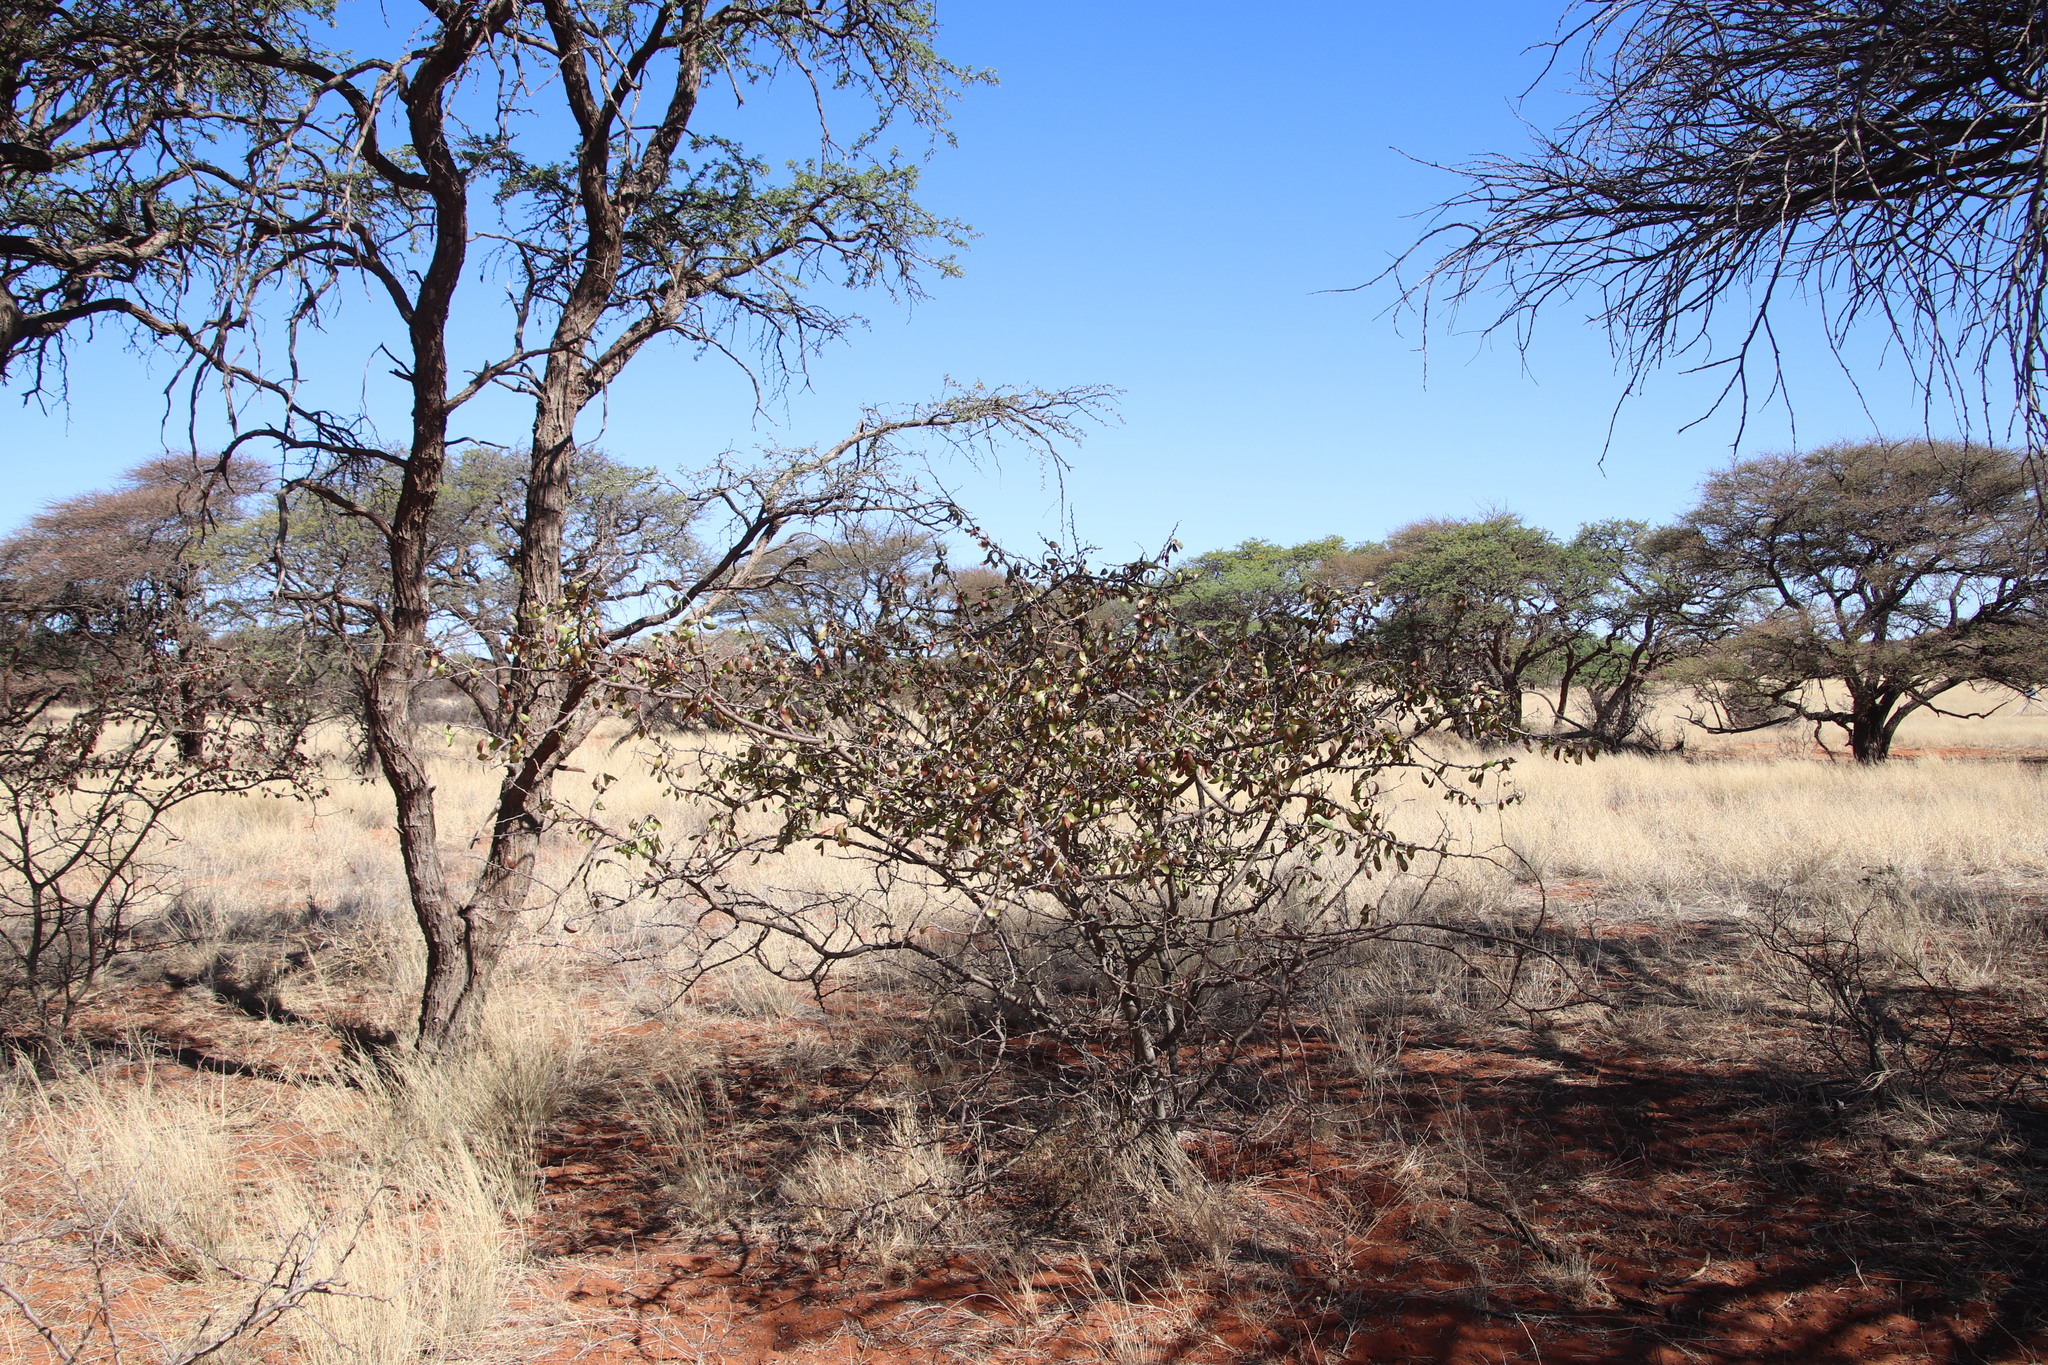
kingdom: Plantae
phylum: Tracheophyta
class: Magnoliopsida
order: Fabales
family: Fabaceae
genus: Senegalia
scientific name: Senegalia mellifera
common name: Hookthorn
